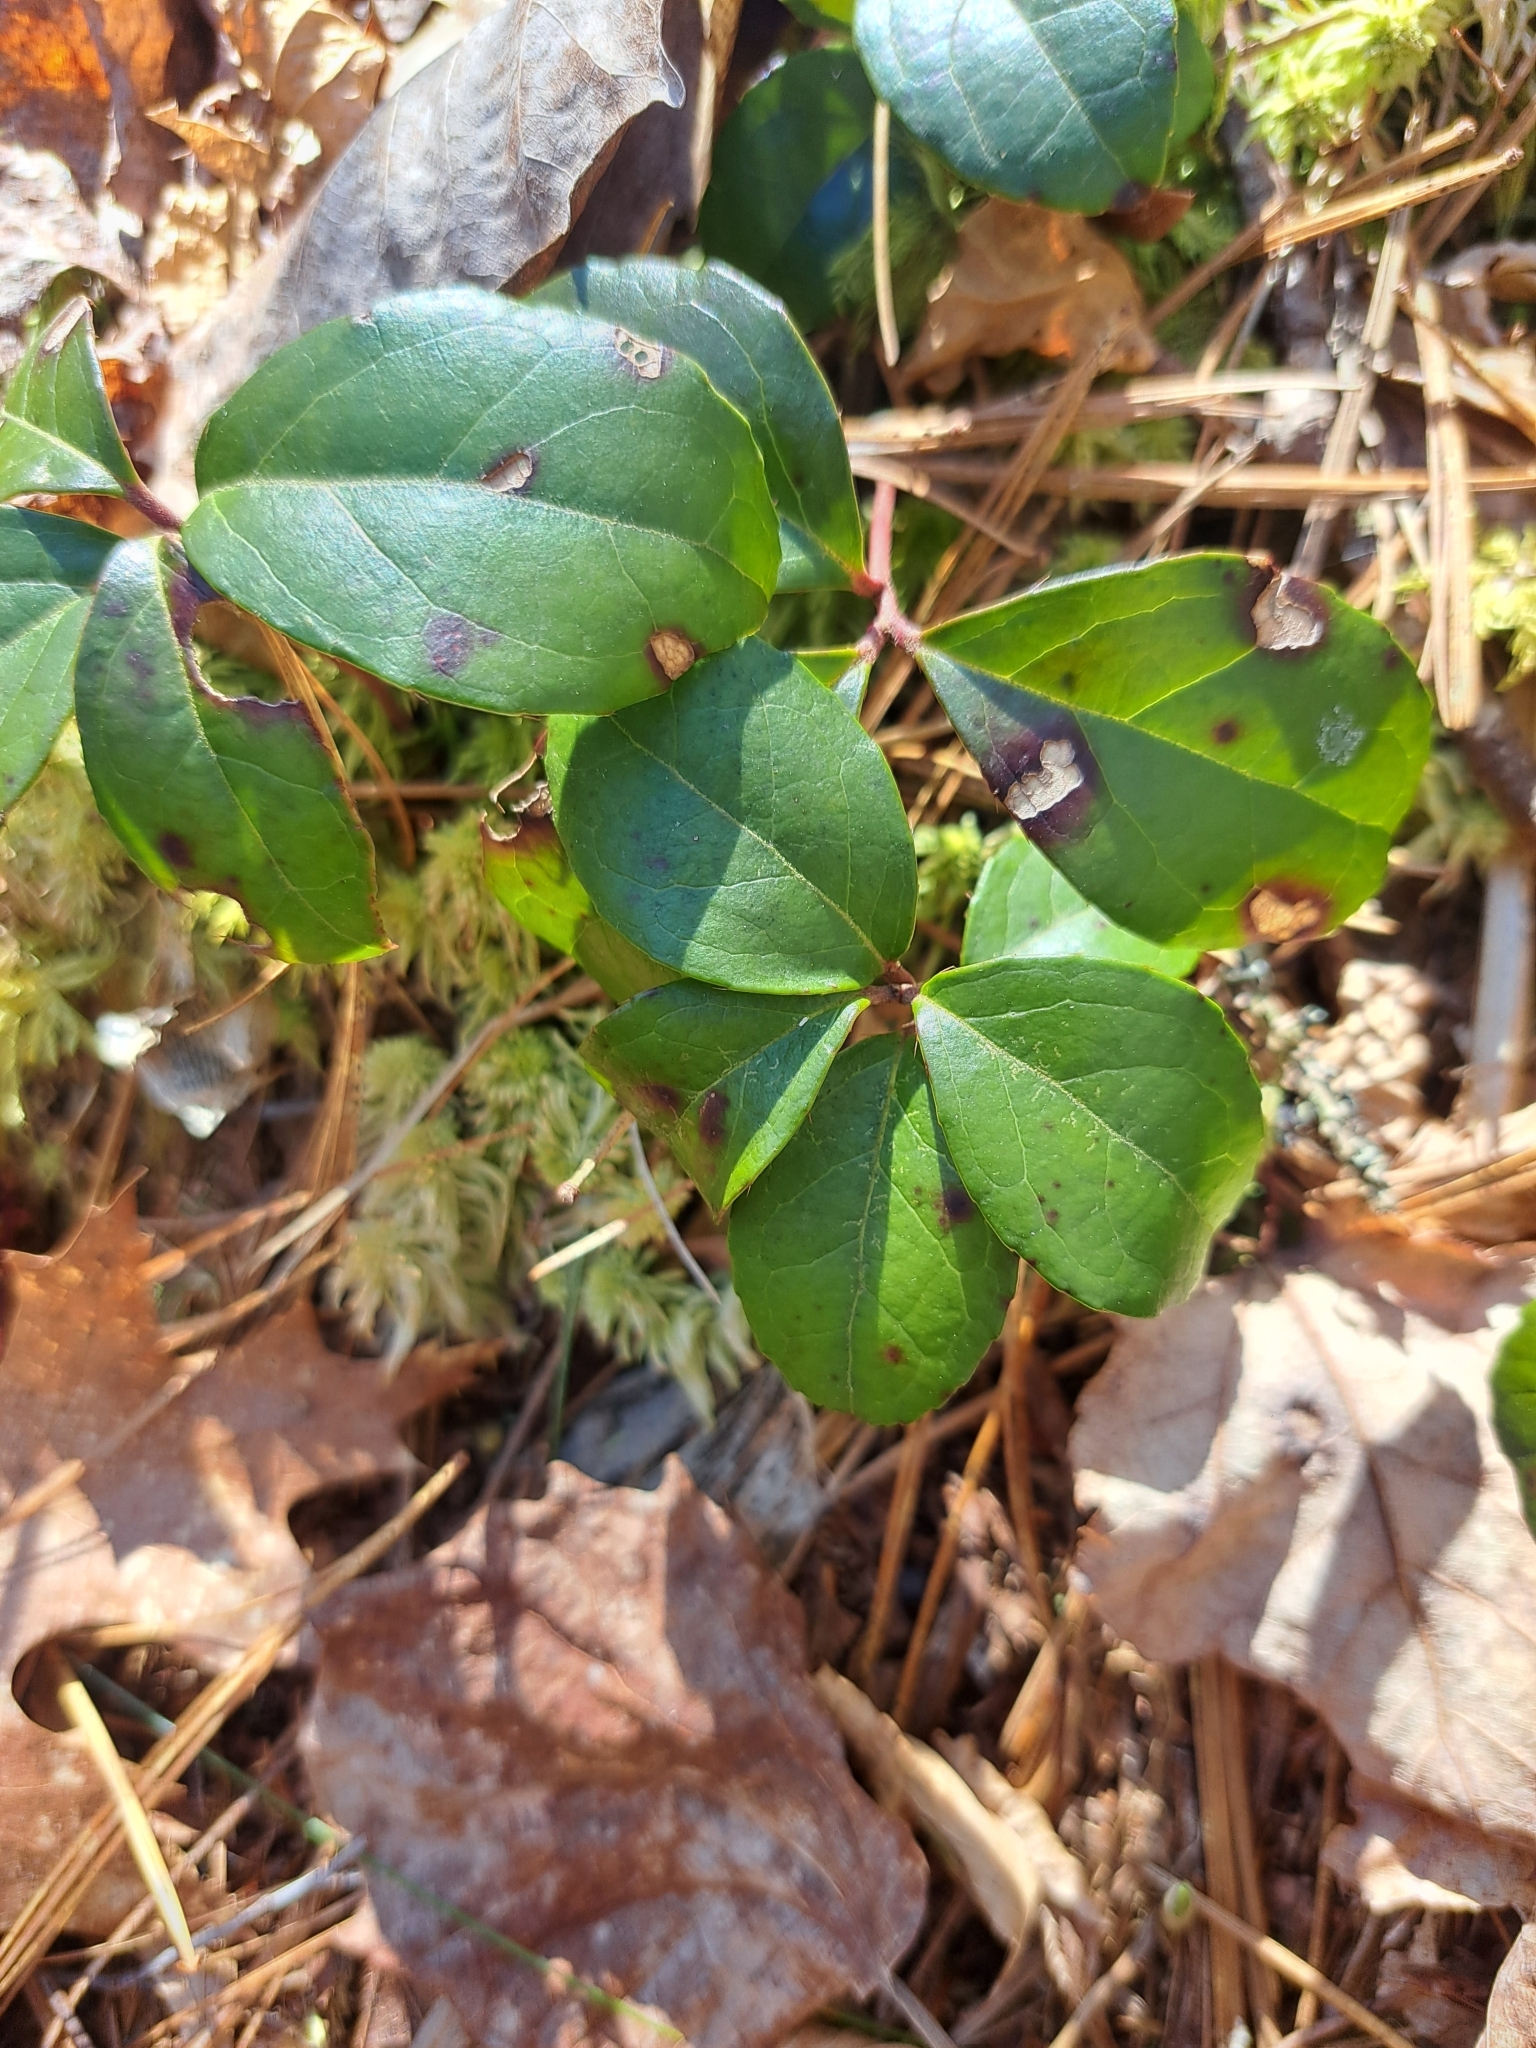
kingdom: Plantae
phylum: Tracheophyta
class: Magnoliopsida
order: Ericales
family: Ericaceae
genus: Gaultheria
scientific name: Gaultheria procumbens
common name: Checkerberry
